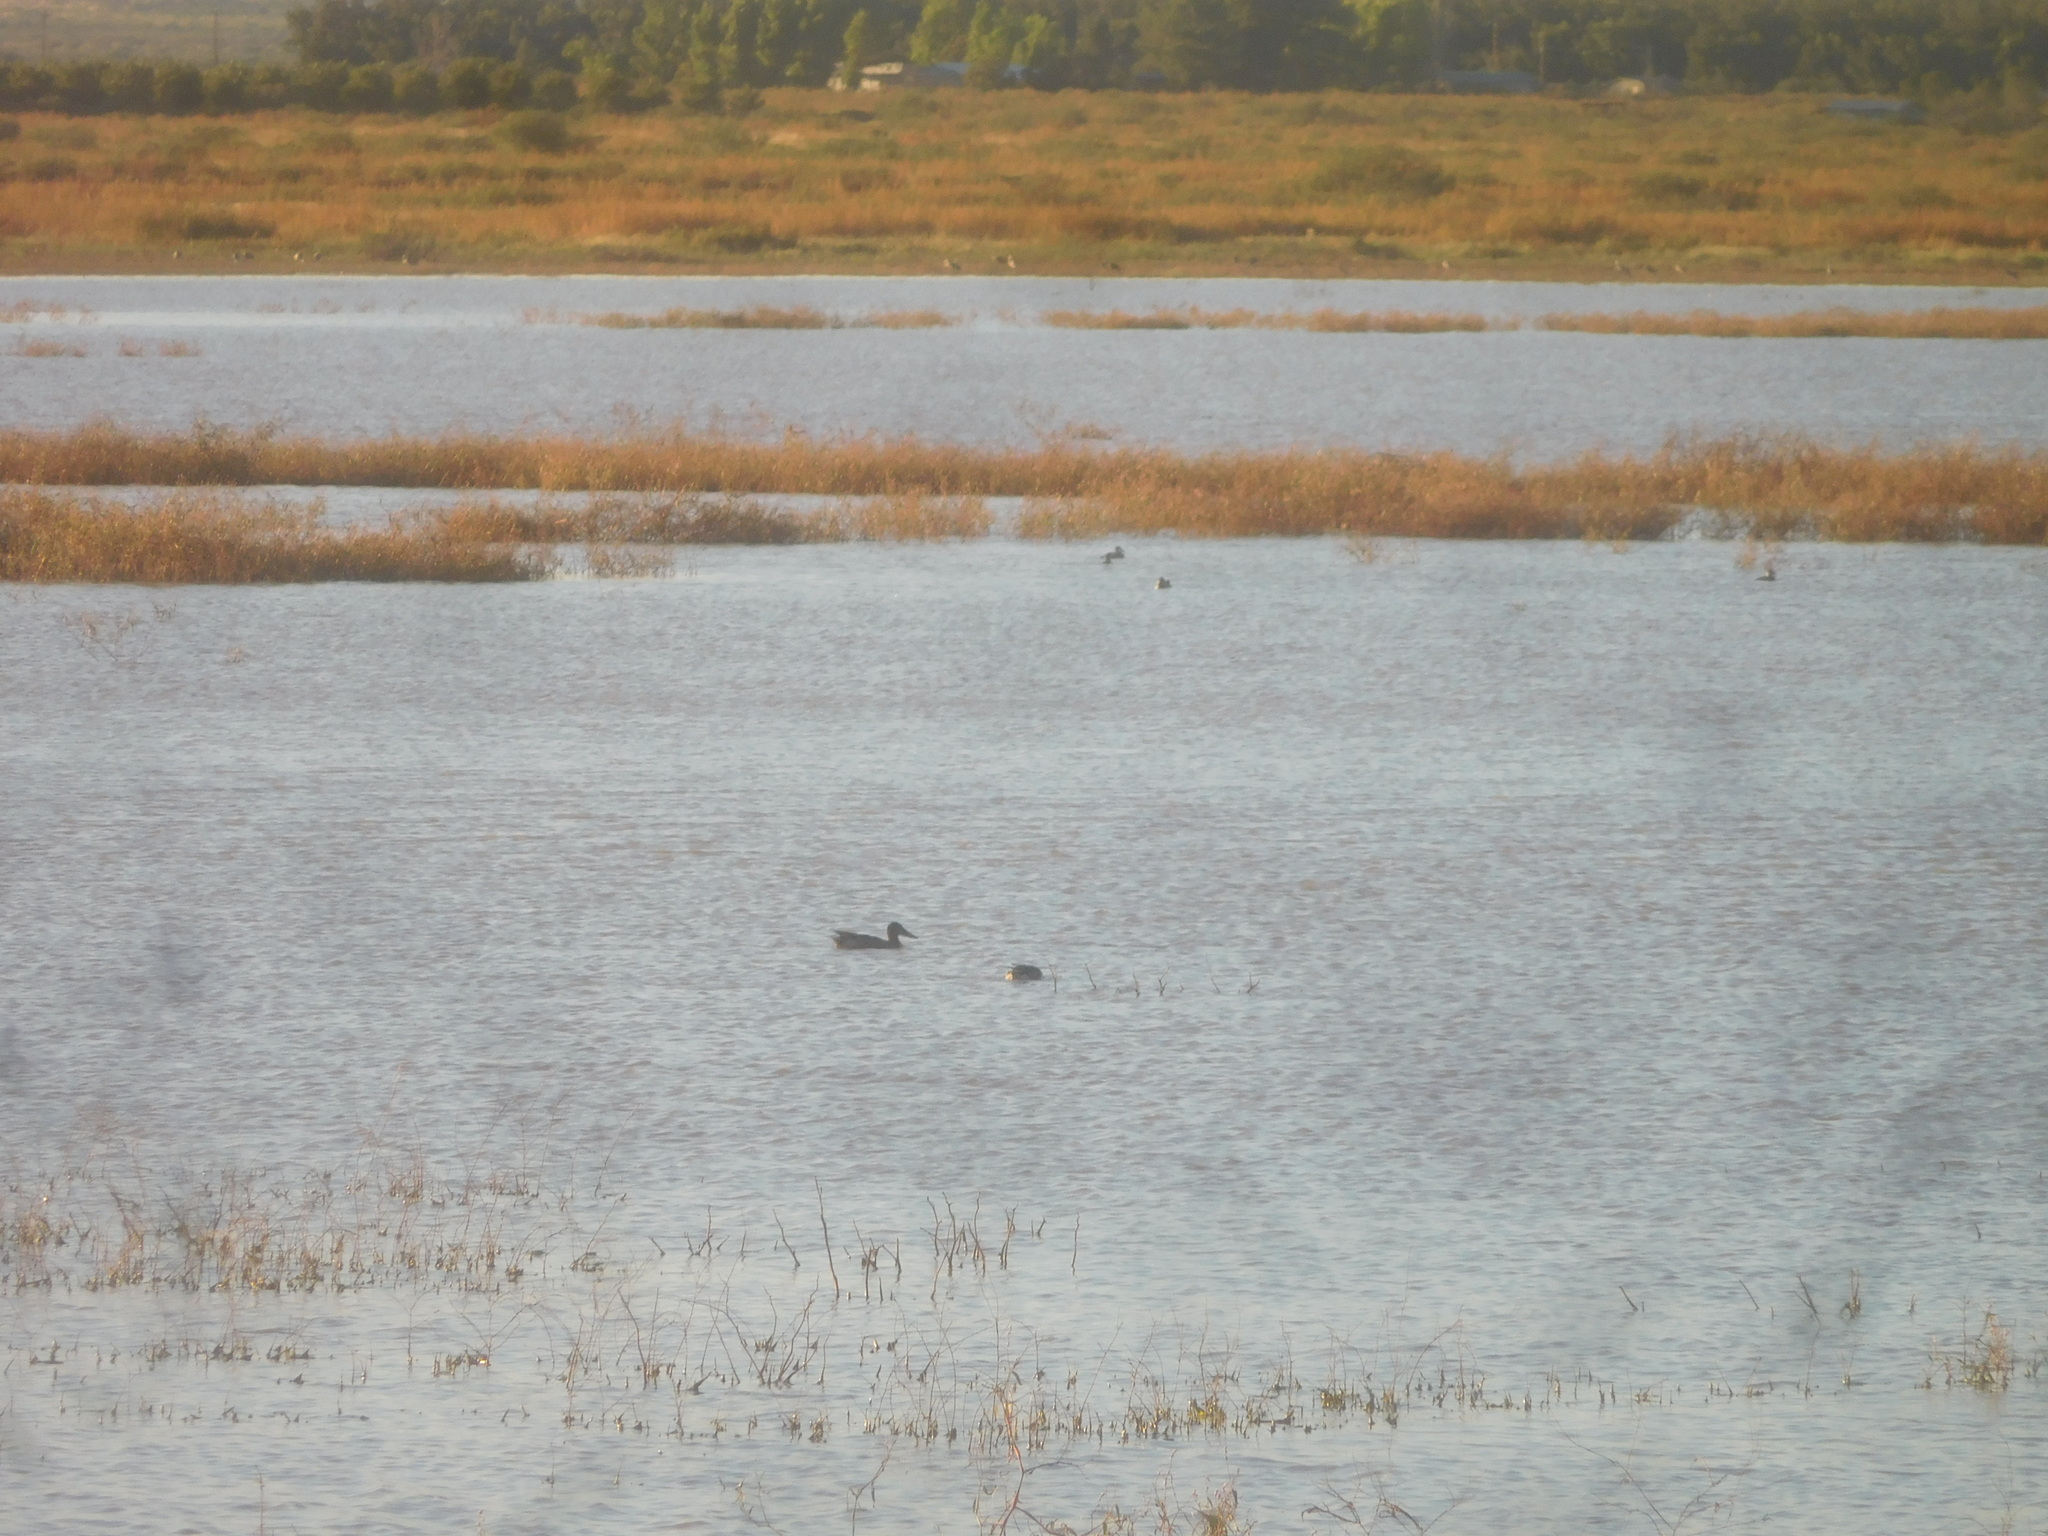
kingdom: Animalia
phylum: Chordata
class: Aves
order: Anseriformes
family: Anatidae
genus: Spatula
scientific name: Spatula clypeata
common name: Northern shoveler
